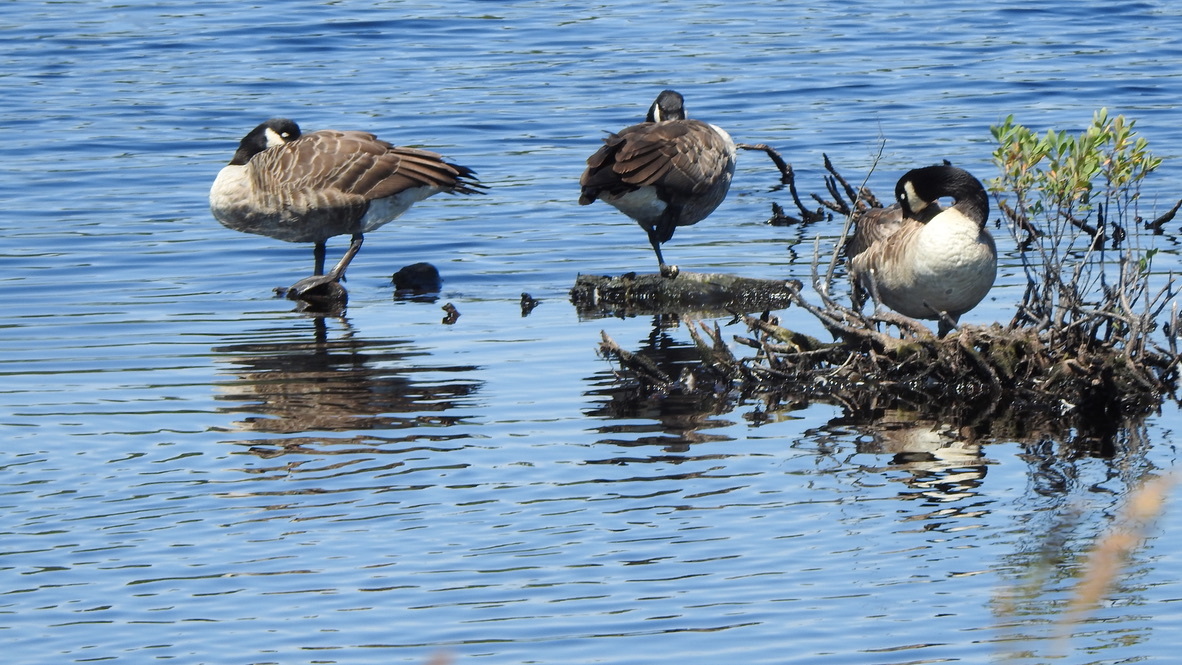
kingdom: Animalia
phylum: Chordata
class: Aves
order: Anseriformes
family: Anatidae
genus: Branta
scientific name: Branta canadensis
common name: Canada goose
